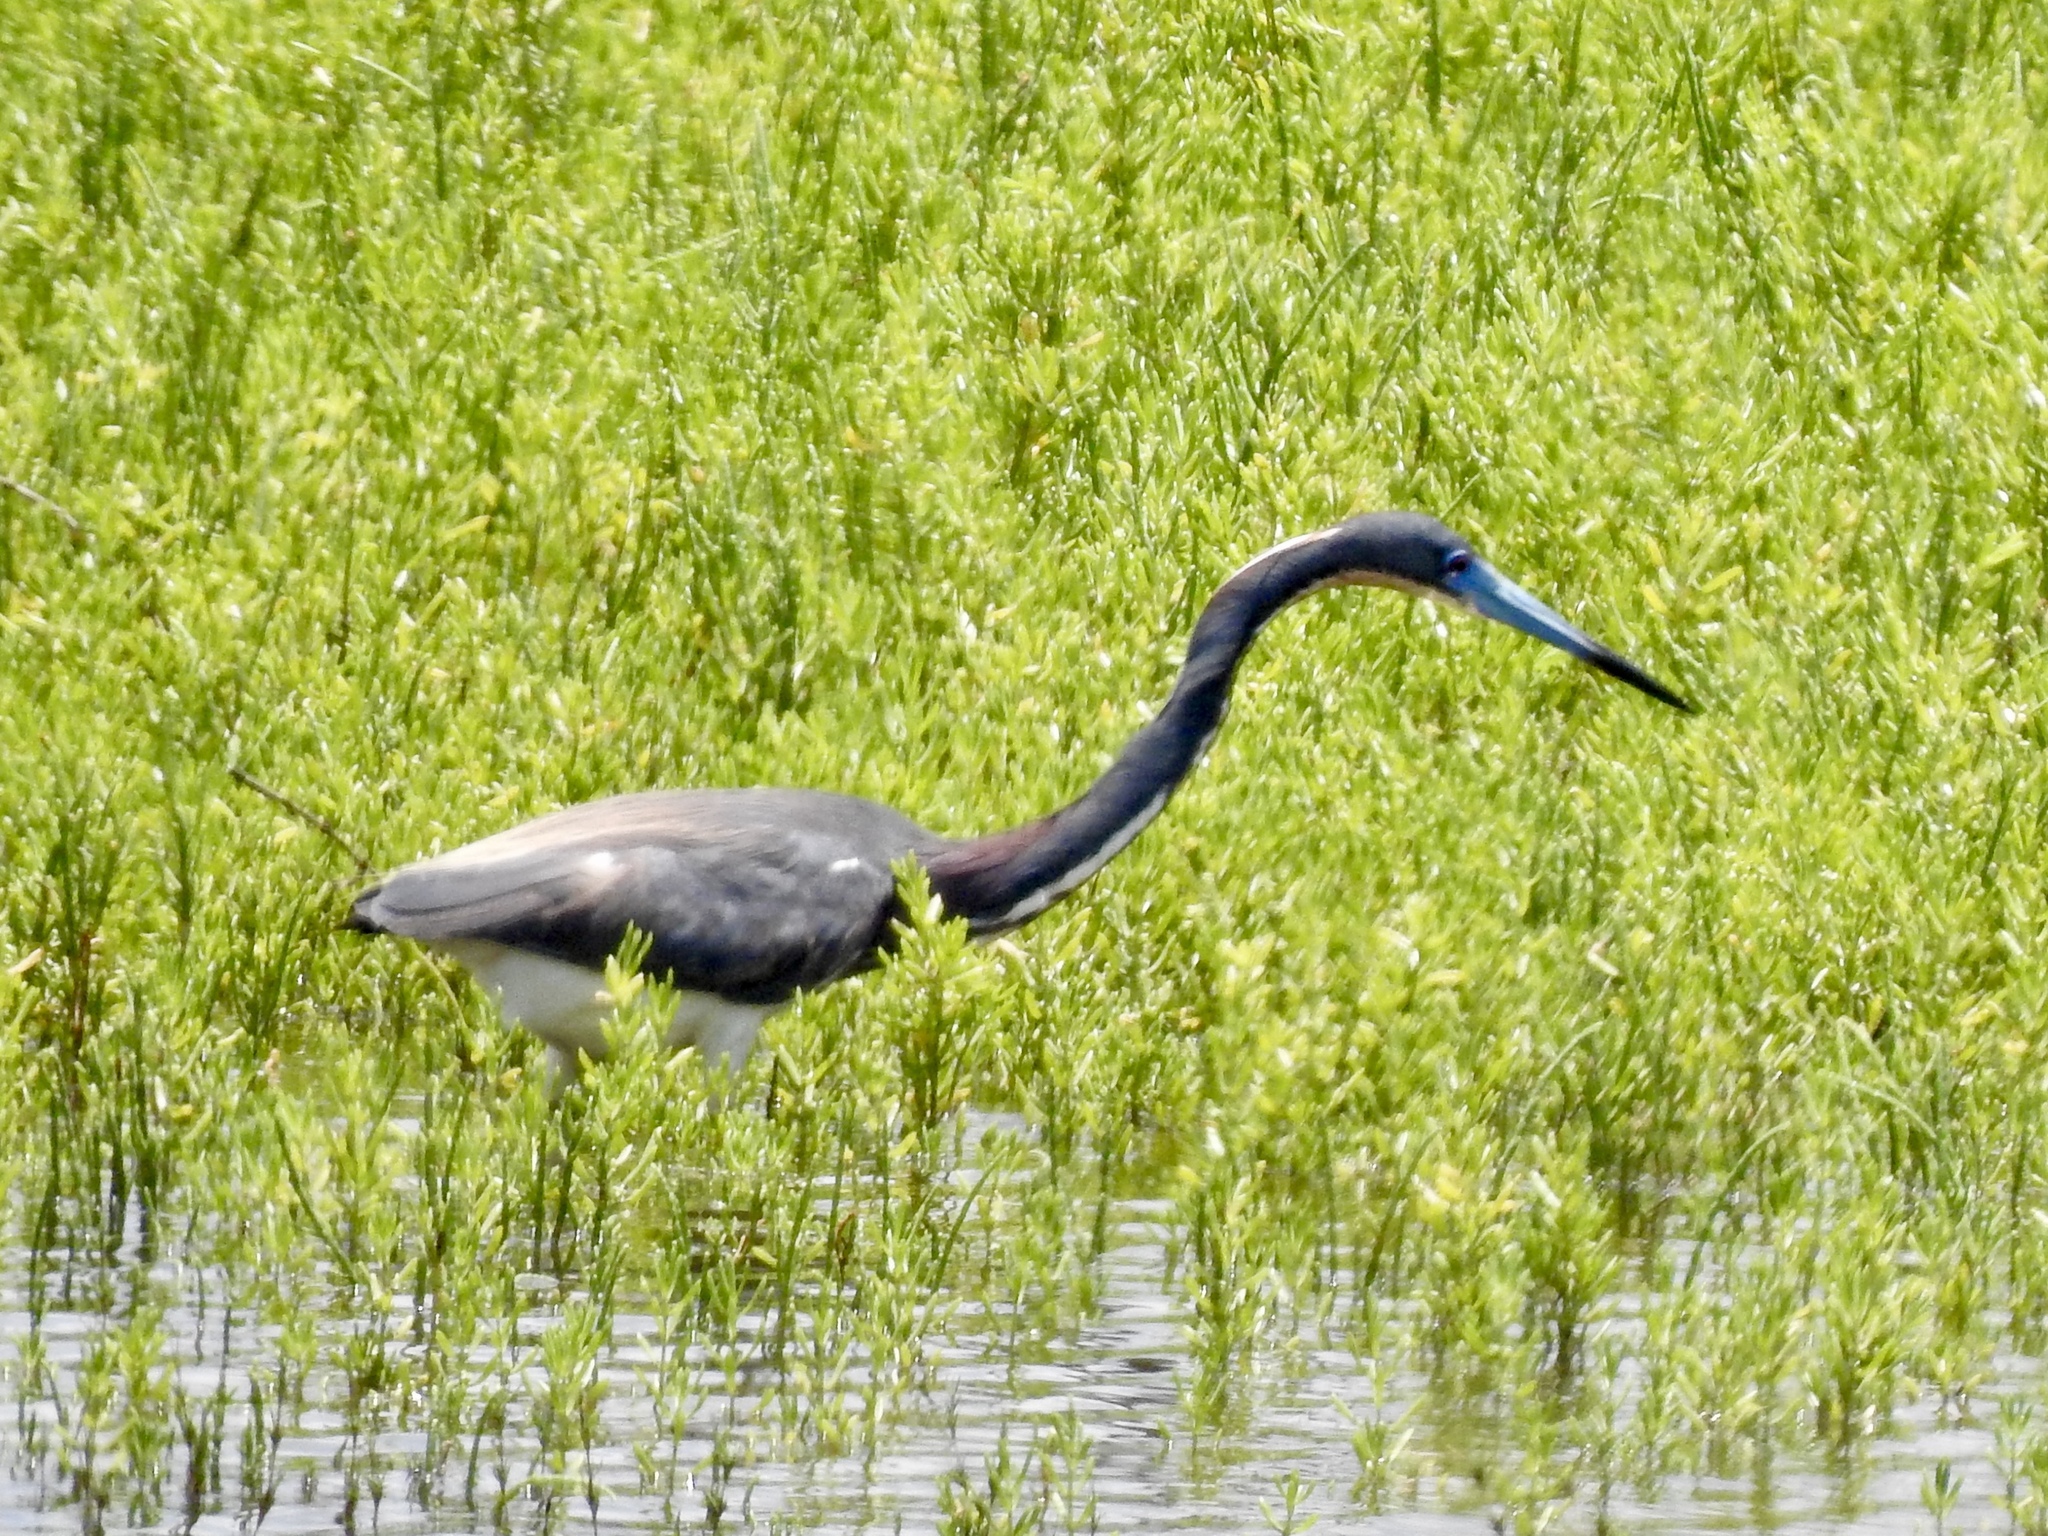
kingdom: Animalia
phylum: Chordata
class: Aves
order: Pelecaniformes
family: Ardeidae
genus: Egretta
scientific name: Egretta tricolor
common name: Tricolored heron
